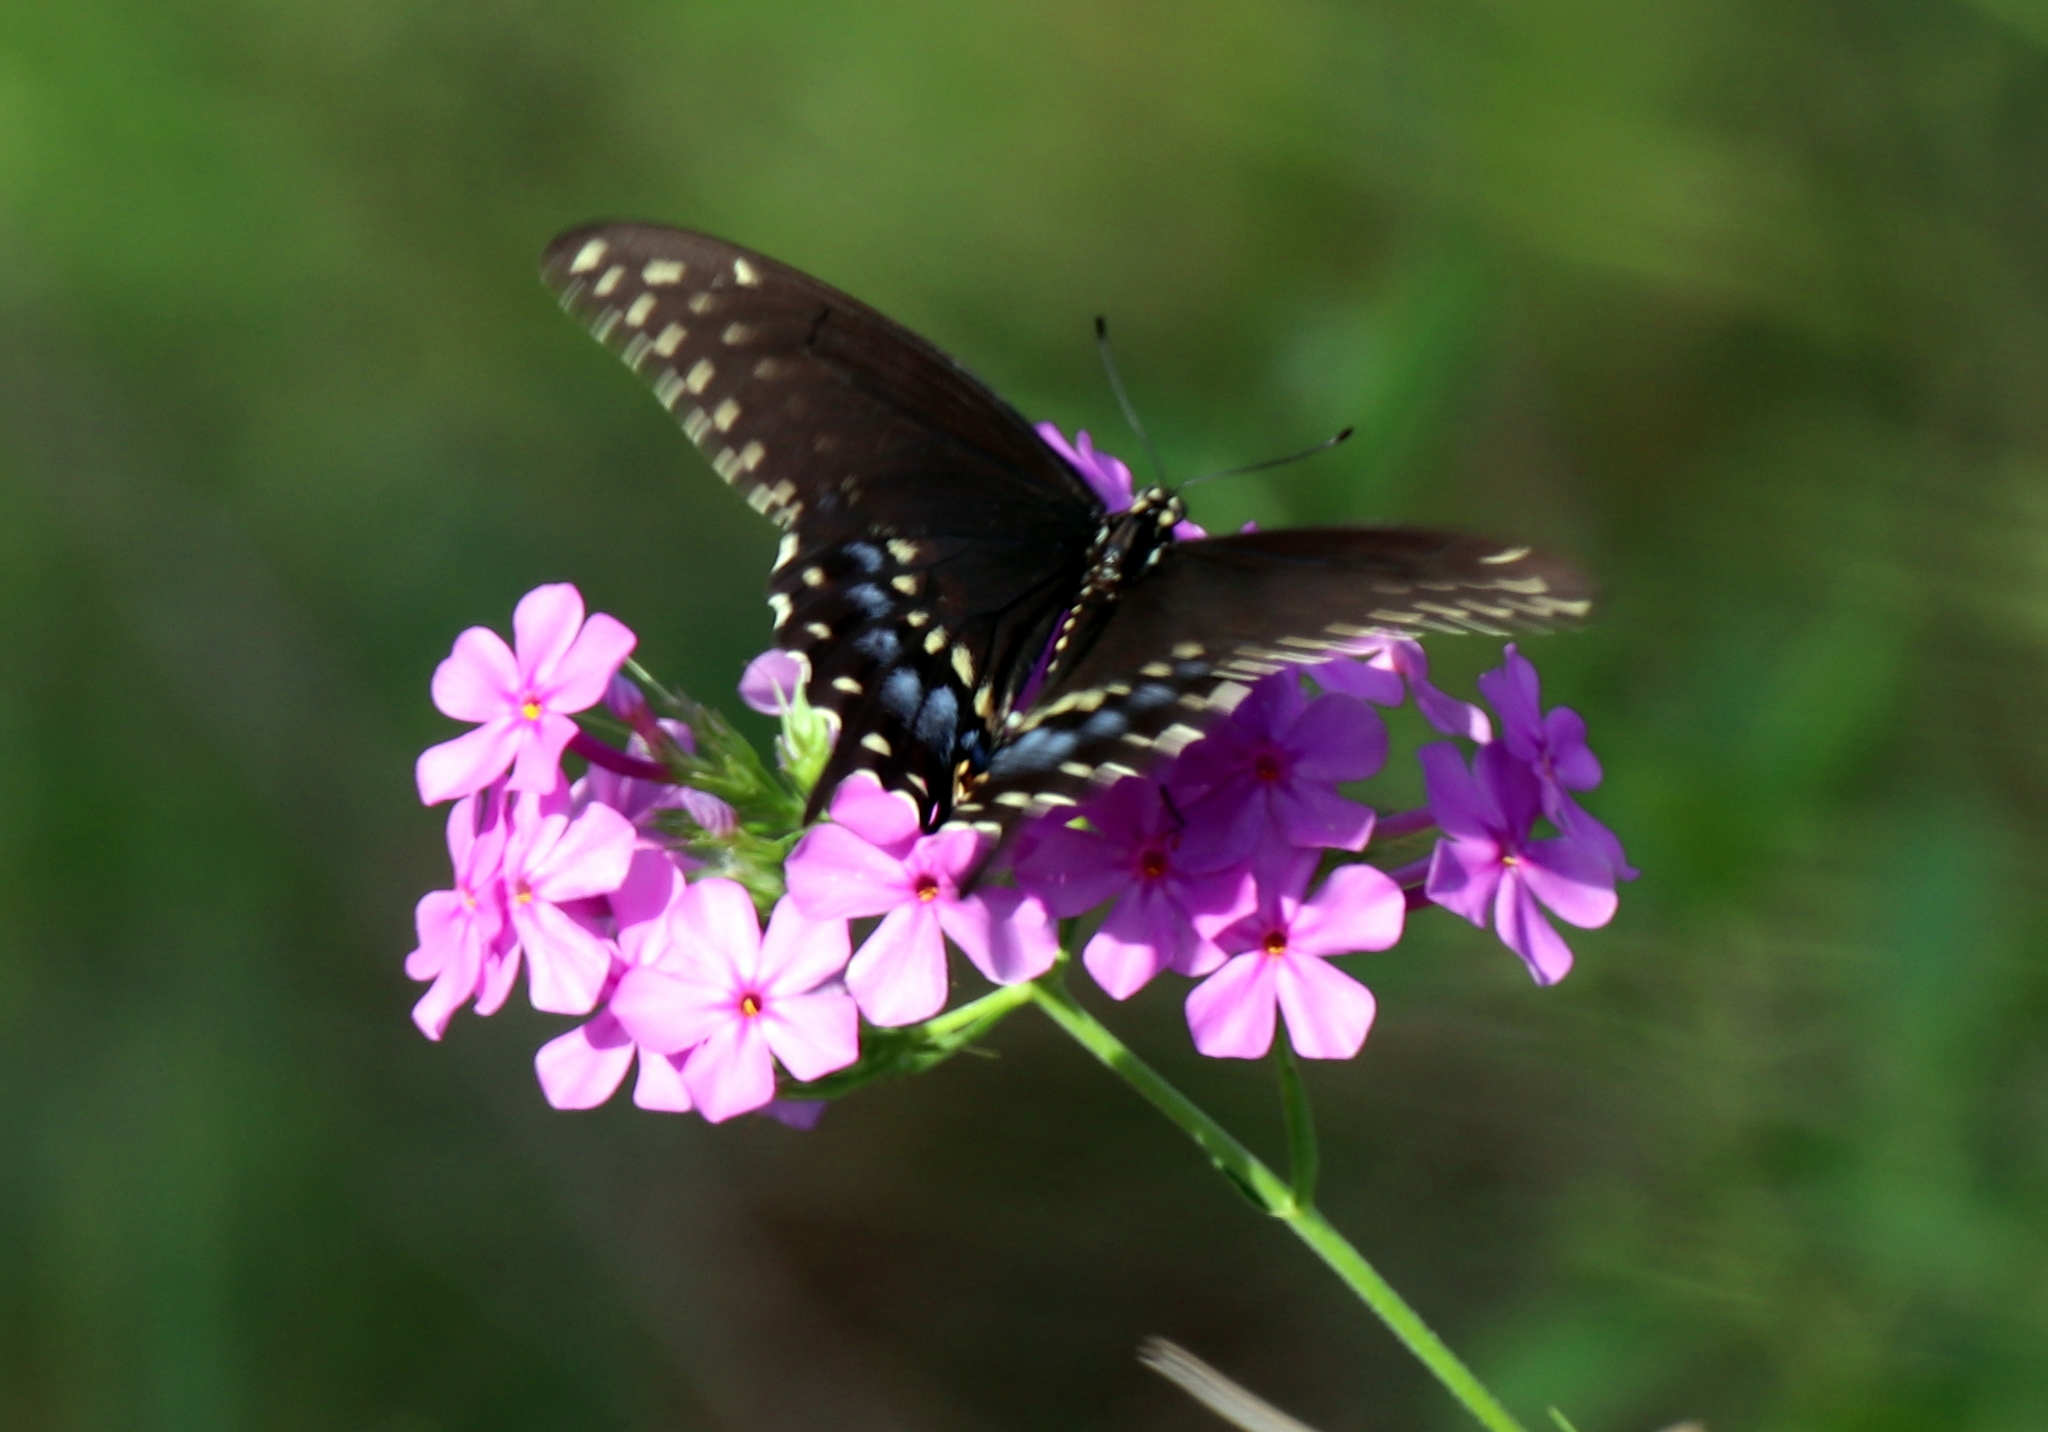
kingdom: Animalia
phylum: Arthropoda
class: Insecta
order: Lepidoptera
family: Papilionidae
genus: Papilio
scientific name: Papilio polyxenes
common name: Black swallowtail
